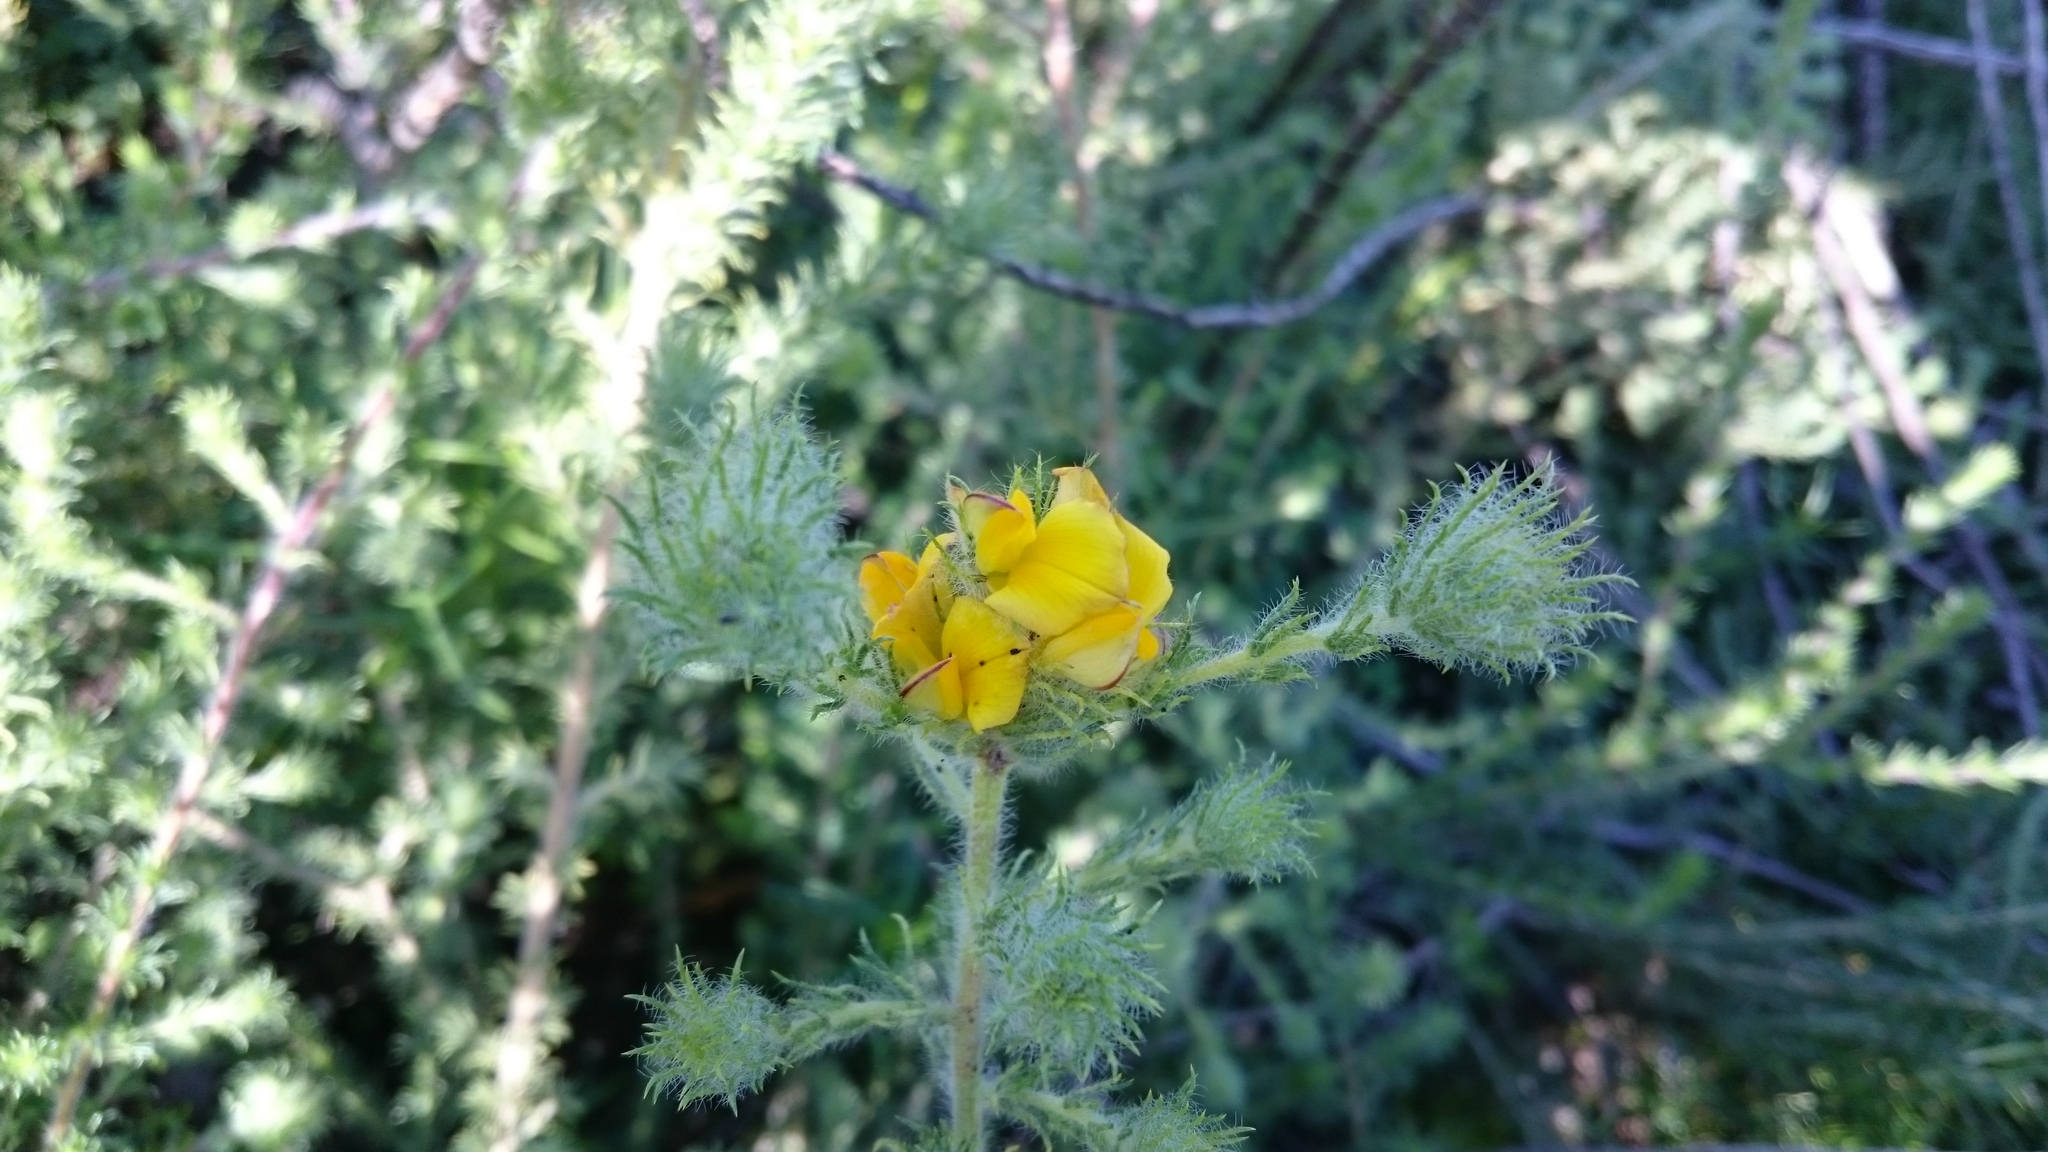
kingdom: Plantae
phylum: Tracheophyta
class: Magnoliopsida
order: Fabales
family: Fabaceae
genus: Aspalathus
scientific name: Aspalathus rubiginosa
